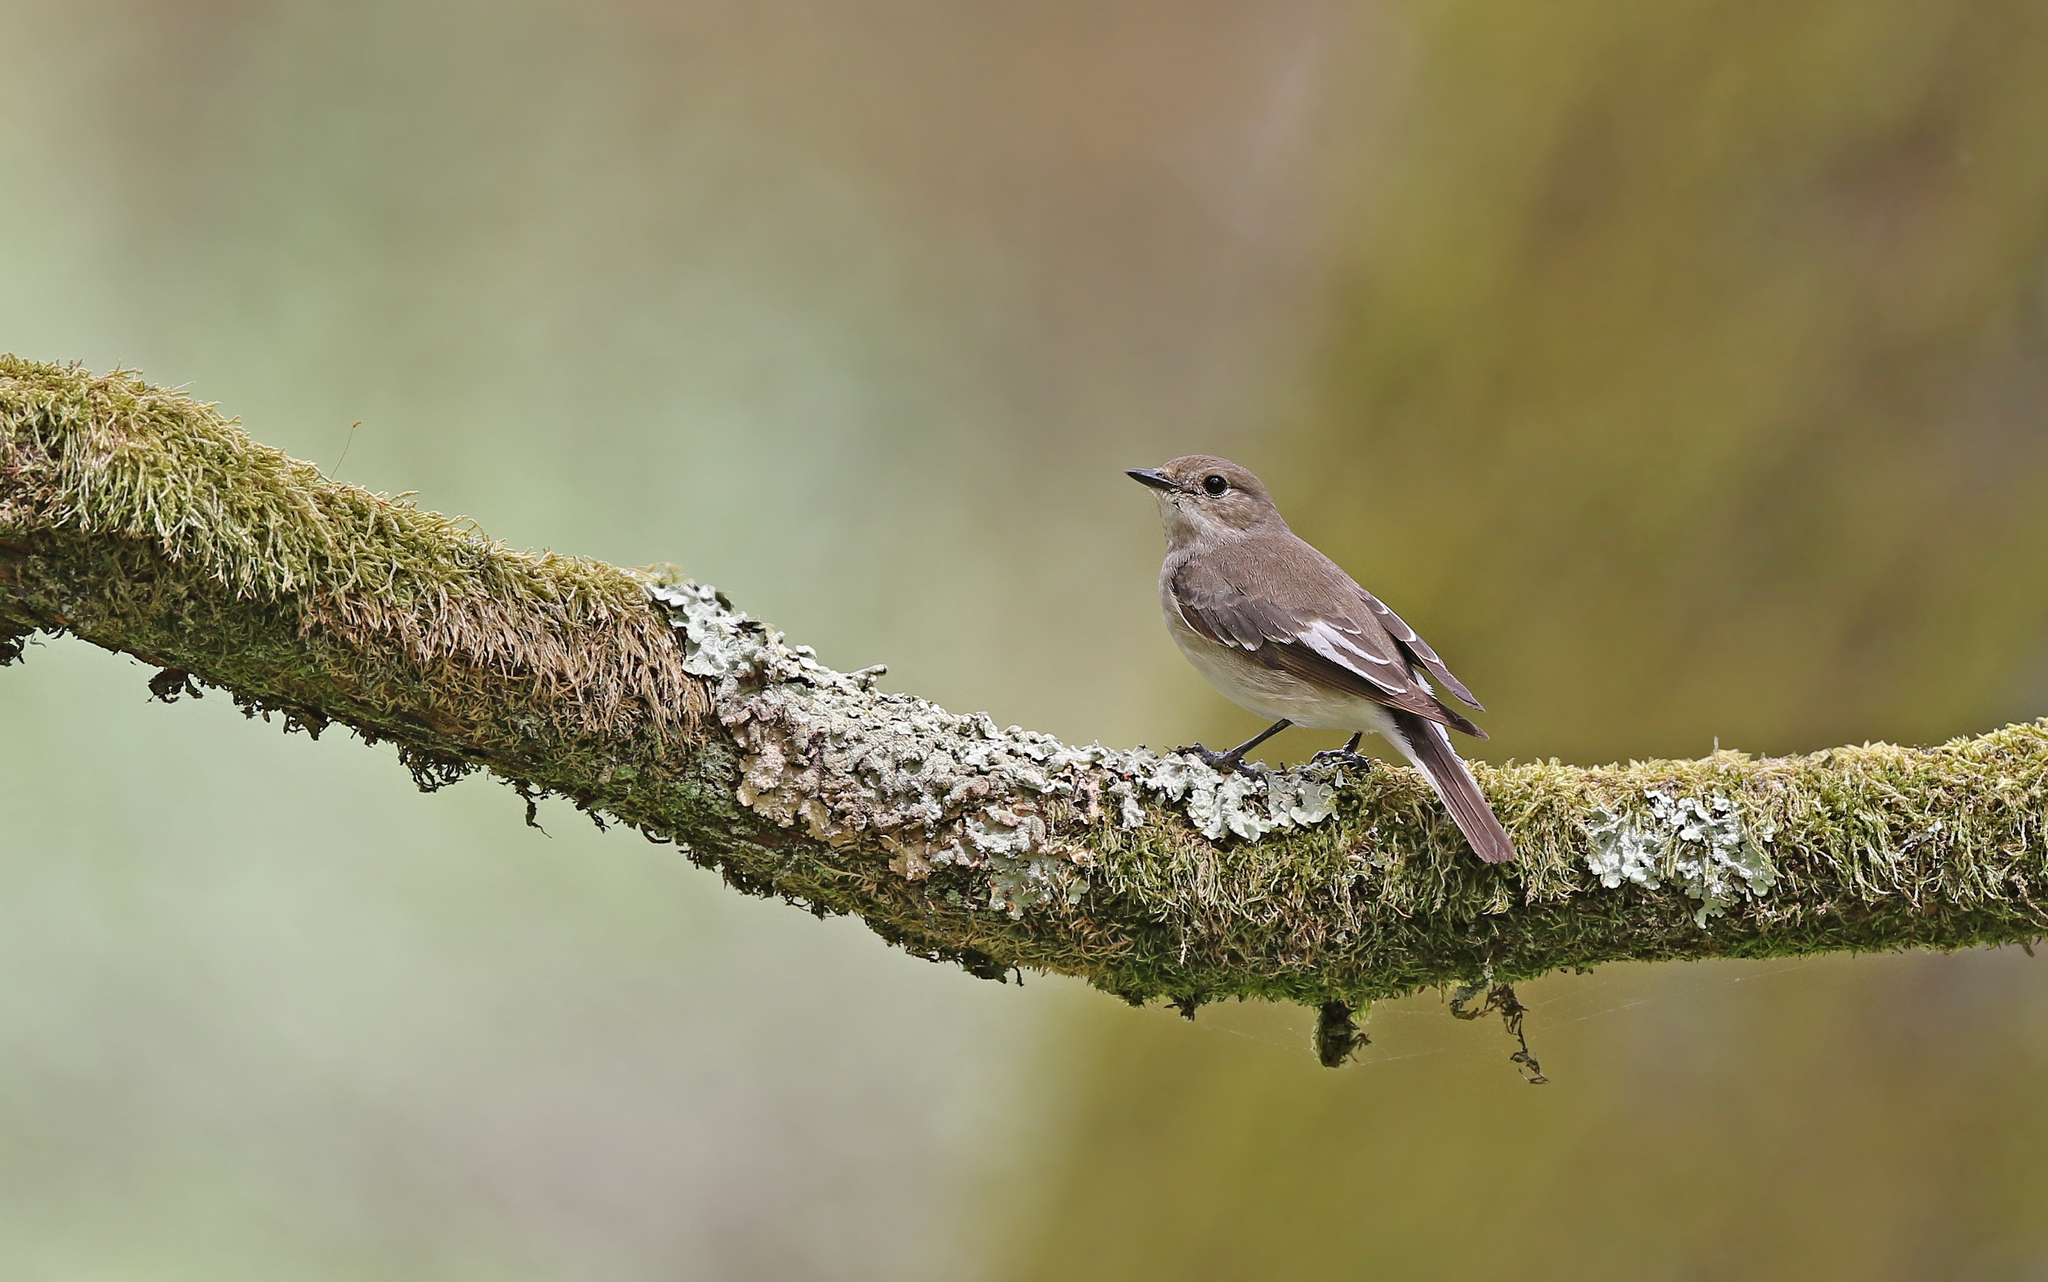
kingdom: Animalia
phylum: Chordata
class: Aves
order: Passeriformes
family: Muscicapidae
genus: Ficedula
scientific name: Ficedula hypoleuca
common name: European pied flycatcher
